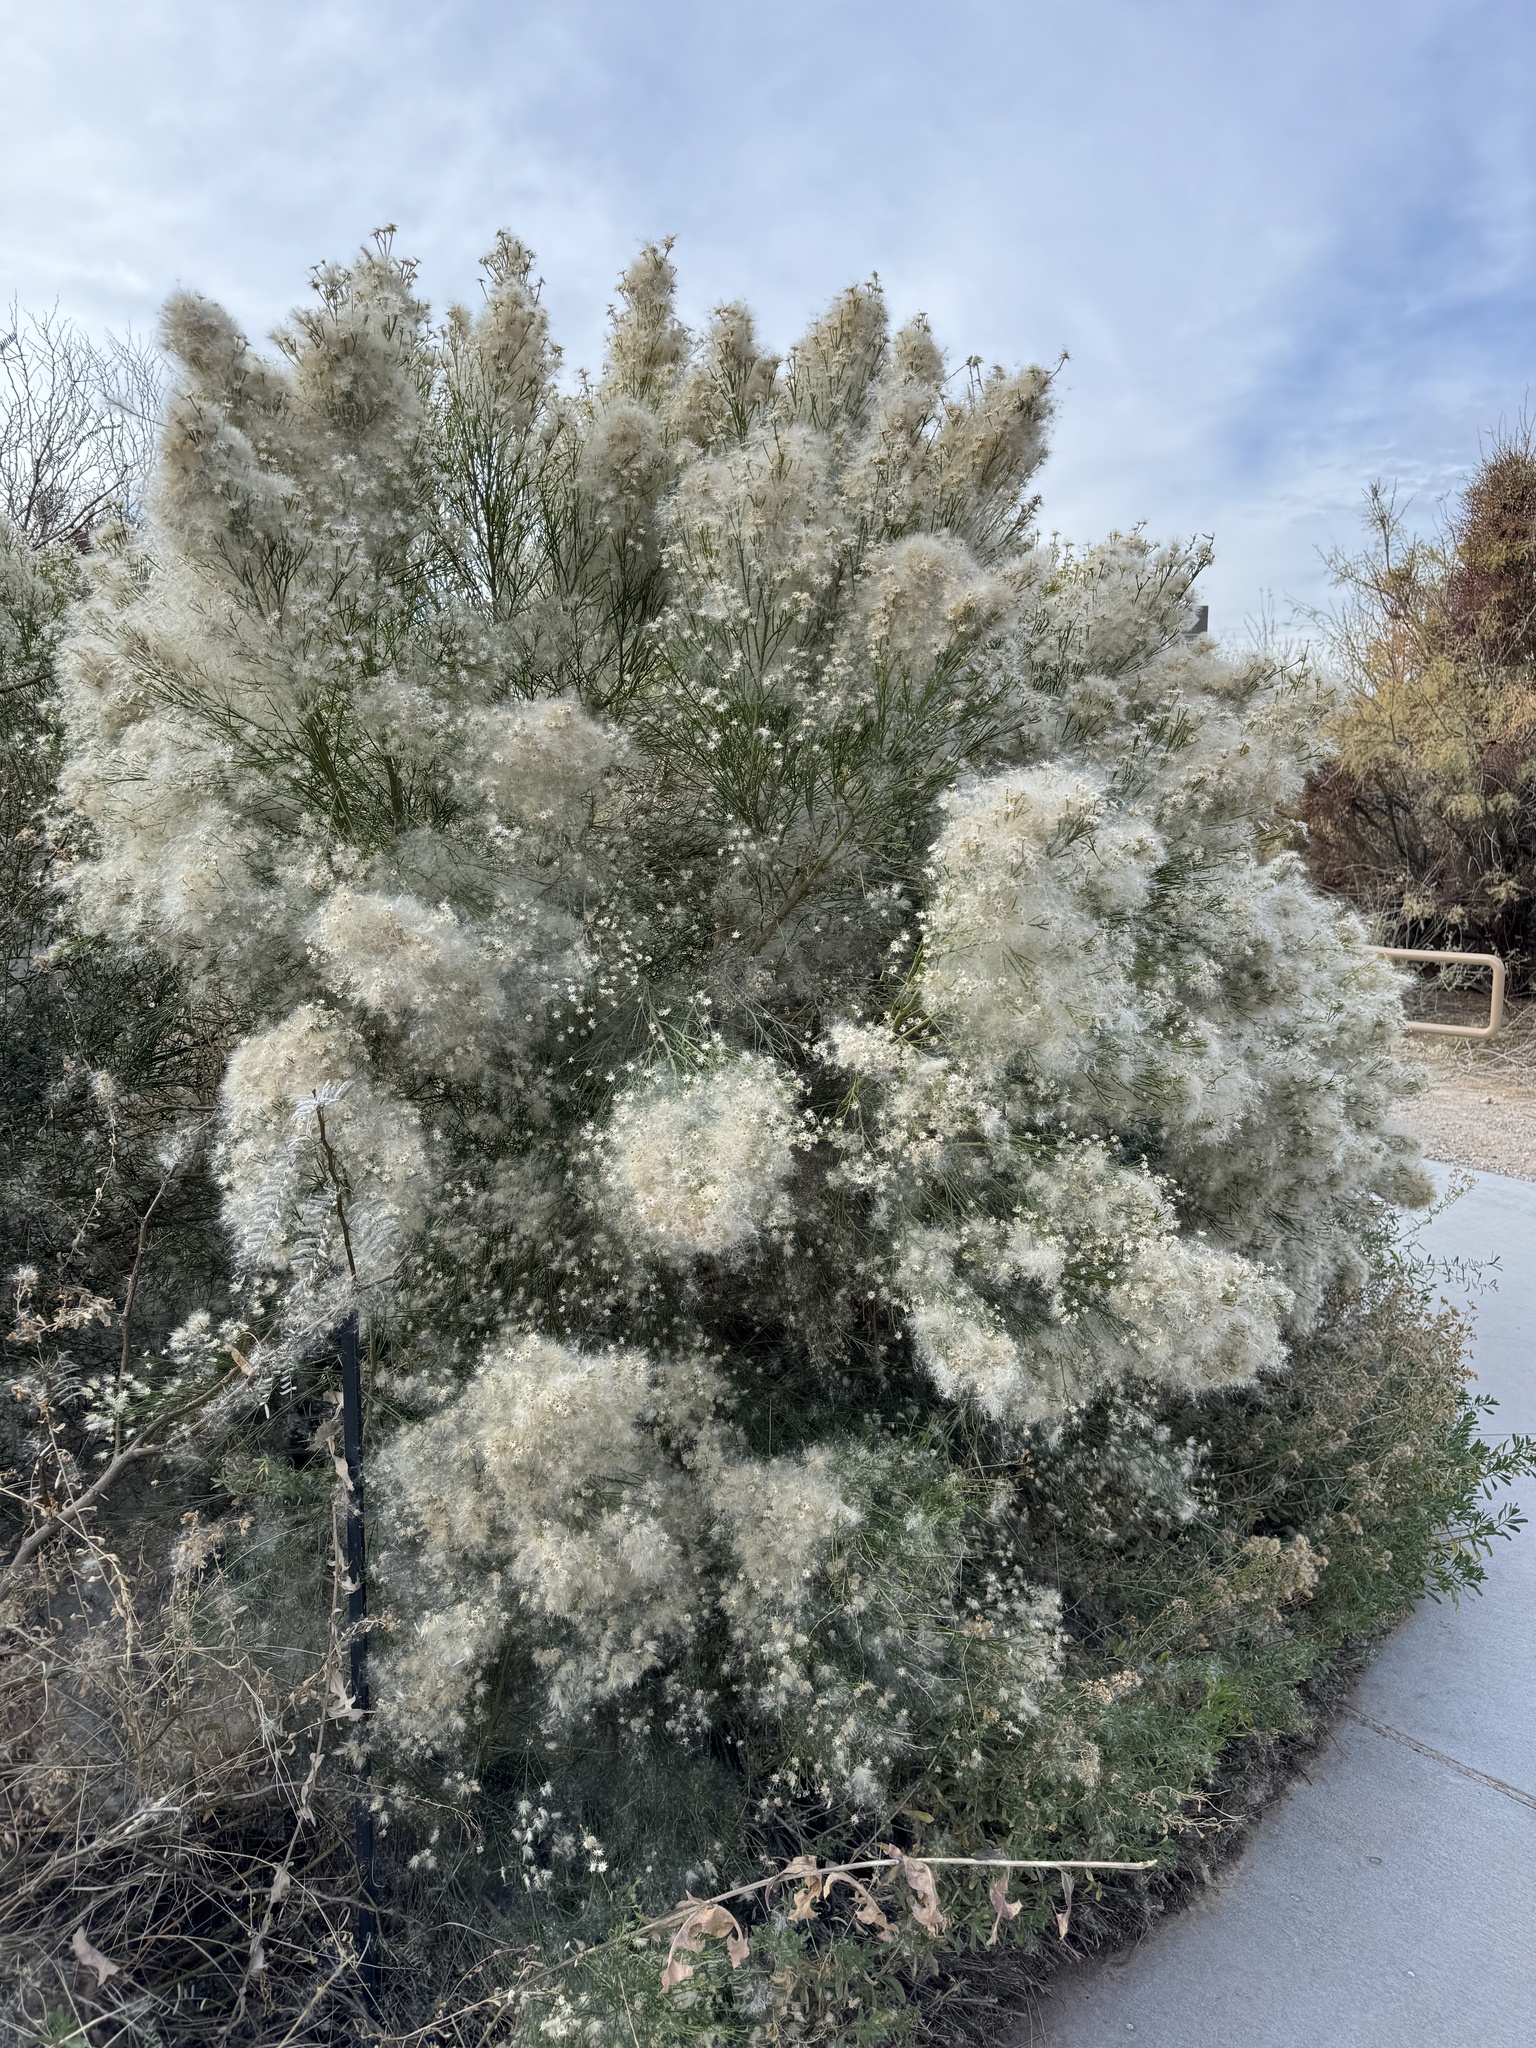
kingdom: Plantae
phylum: Tracheophyta
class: Magnoliopsida
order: Asterales
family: Asteraceae
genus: Baccharis
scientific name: Baccharis sarothroides
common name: Desert-broom
